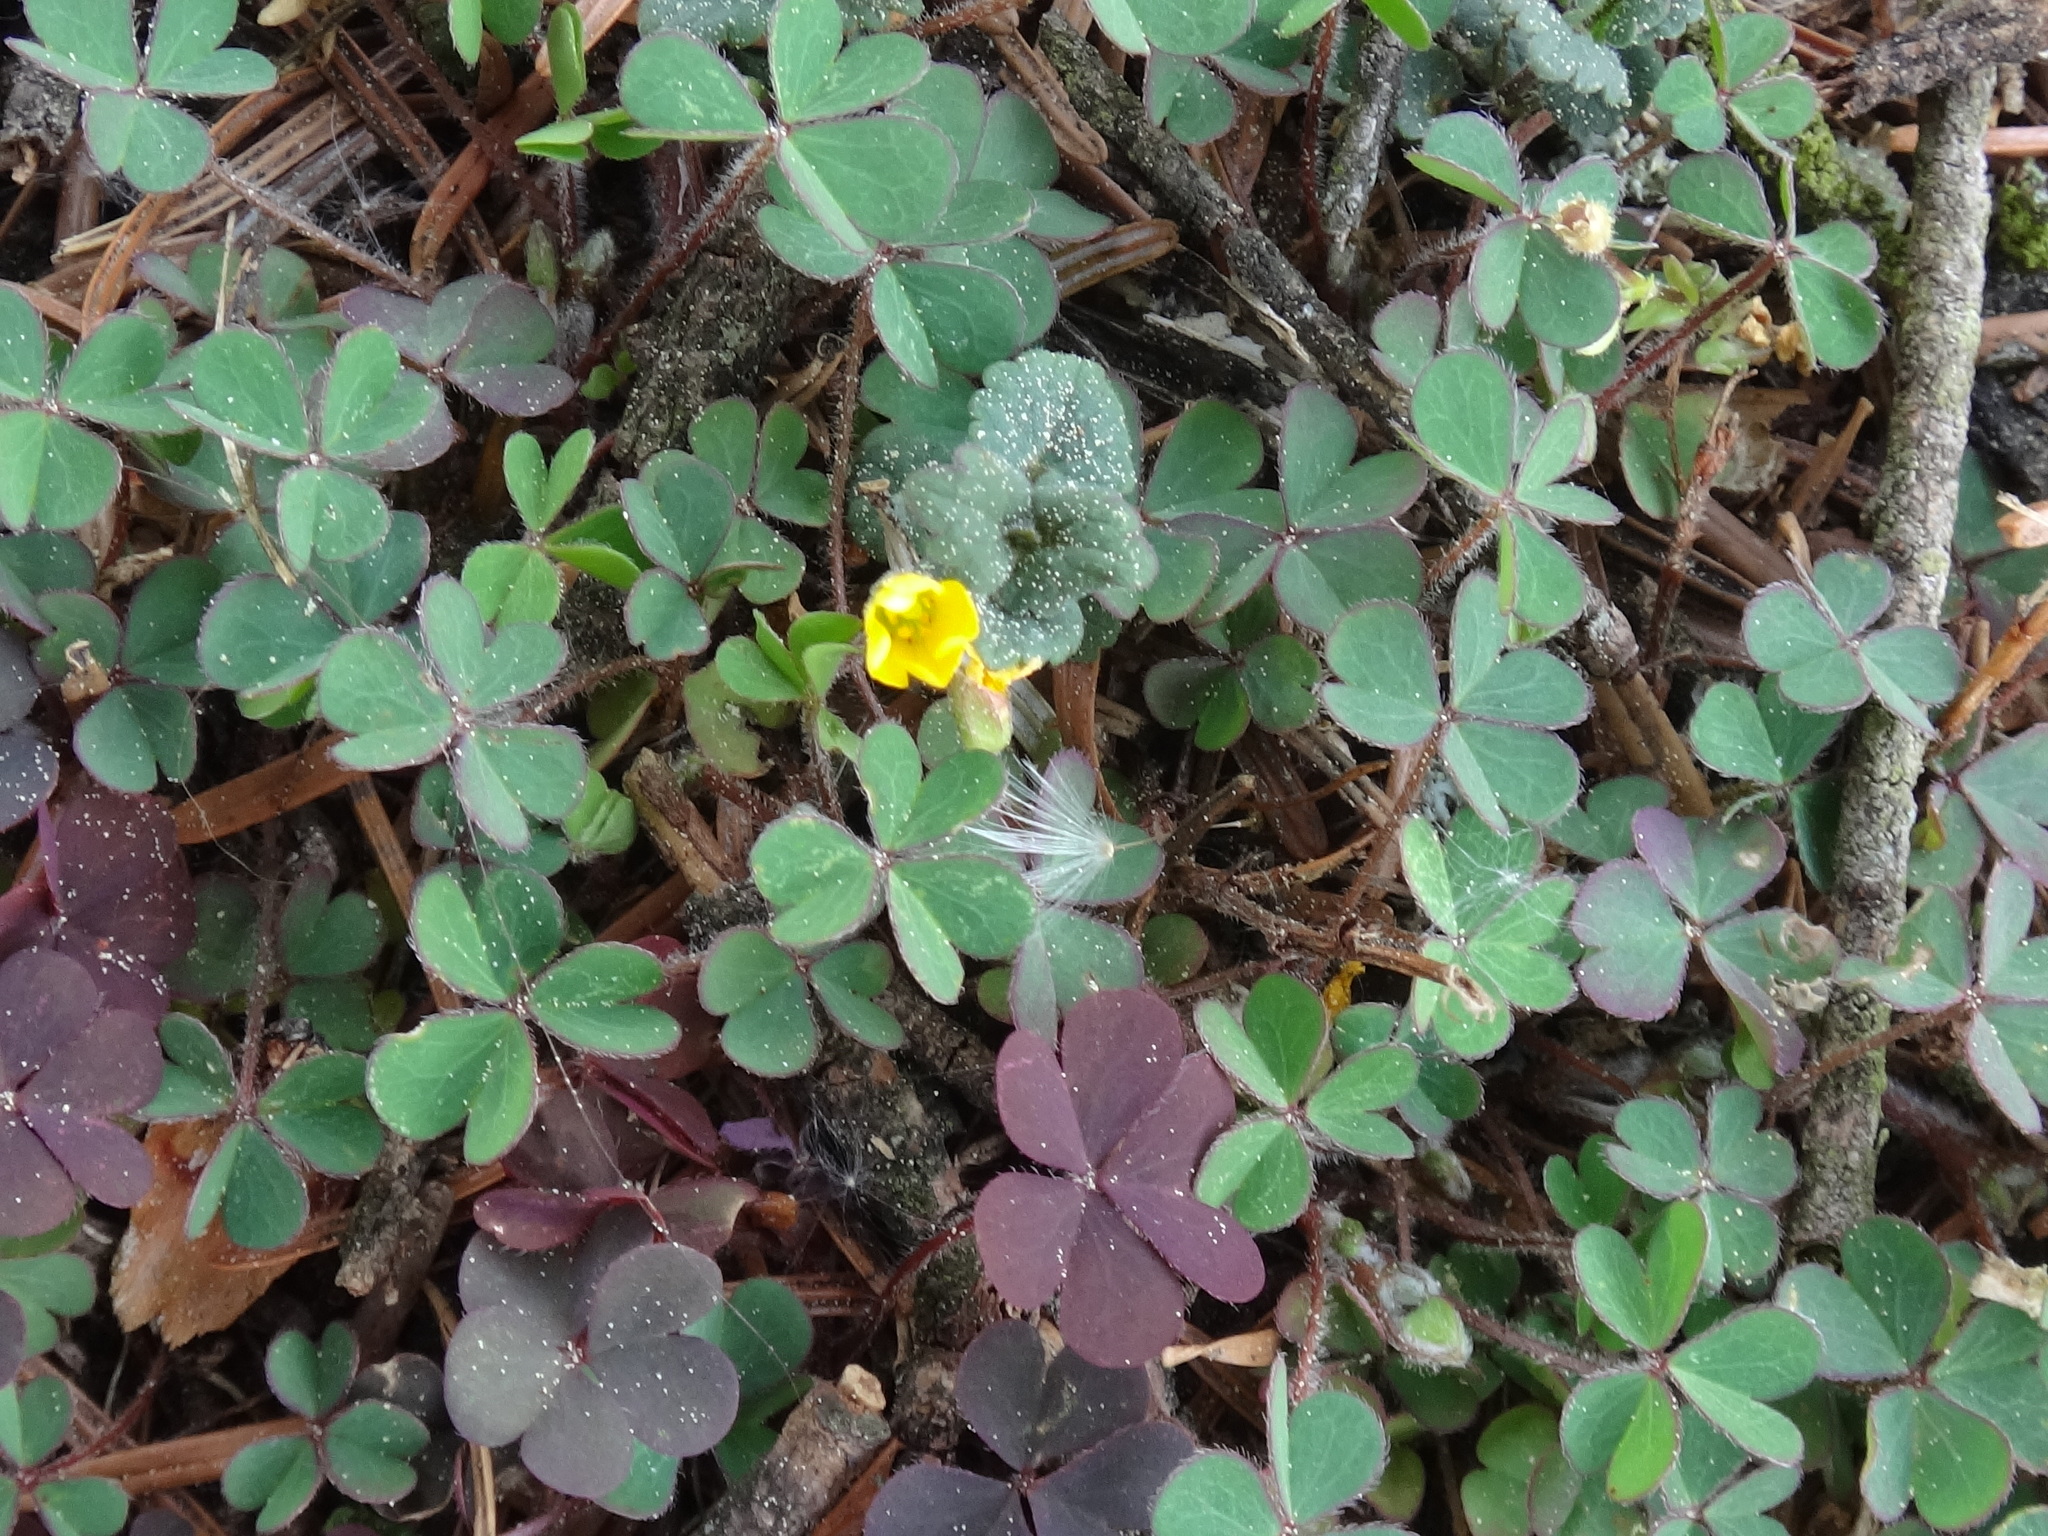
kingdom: Plantae
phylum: Tracheophyta
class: Magnoliopsida
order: Oxalidales
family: Oxalidaceae
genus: Oxalis
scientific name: Oxalis corniculata
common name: Procumbent yellow-sorrel
